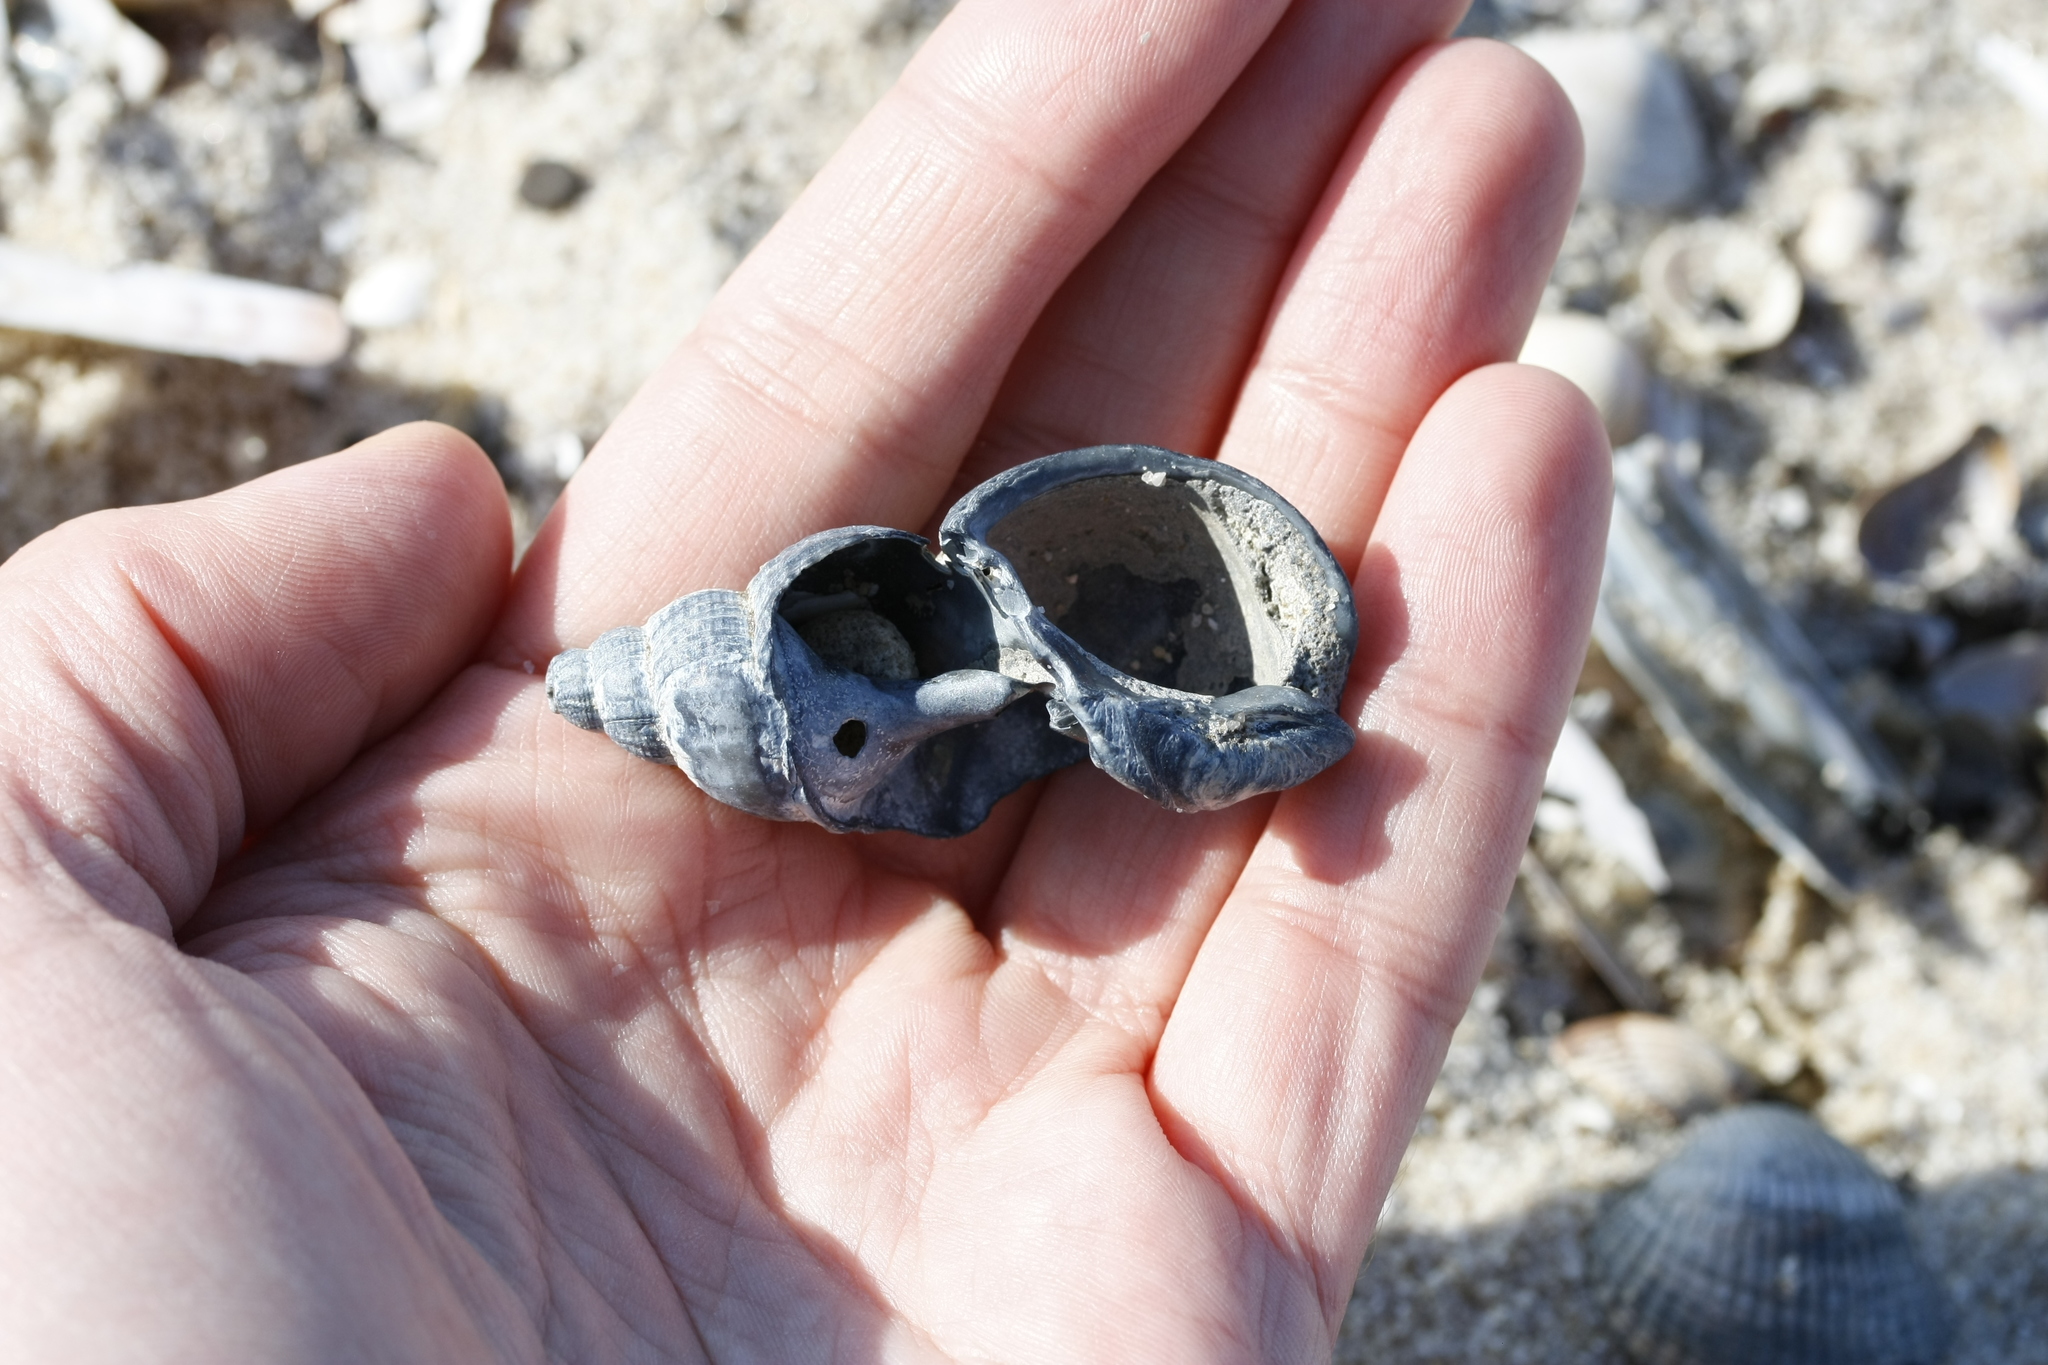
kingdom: Animalia
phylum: Mollusca
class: Gastropoda
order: Neogastropoda
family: Buccinidae
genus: Buccinum
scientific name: Buccinum undatum
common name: Common whelk
